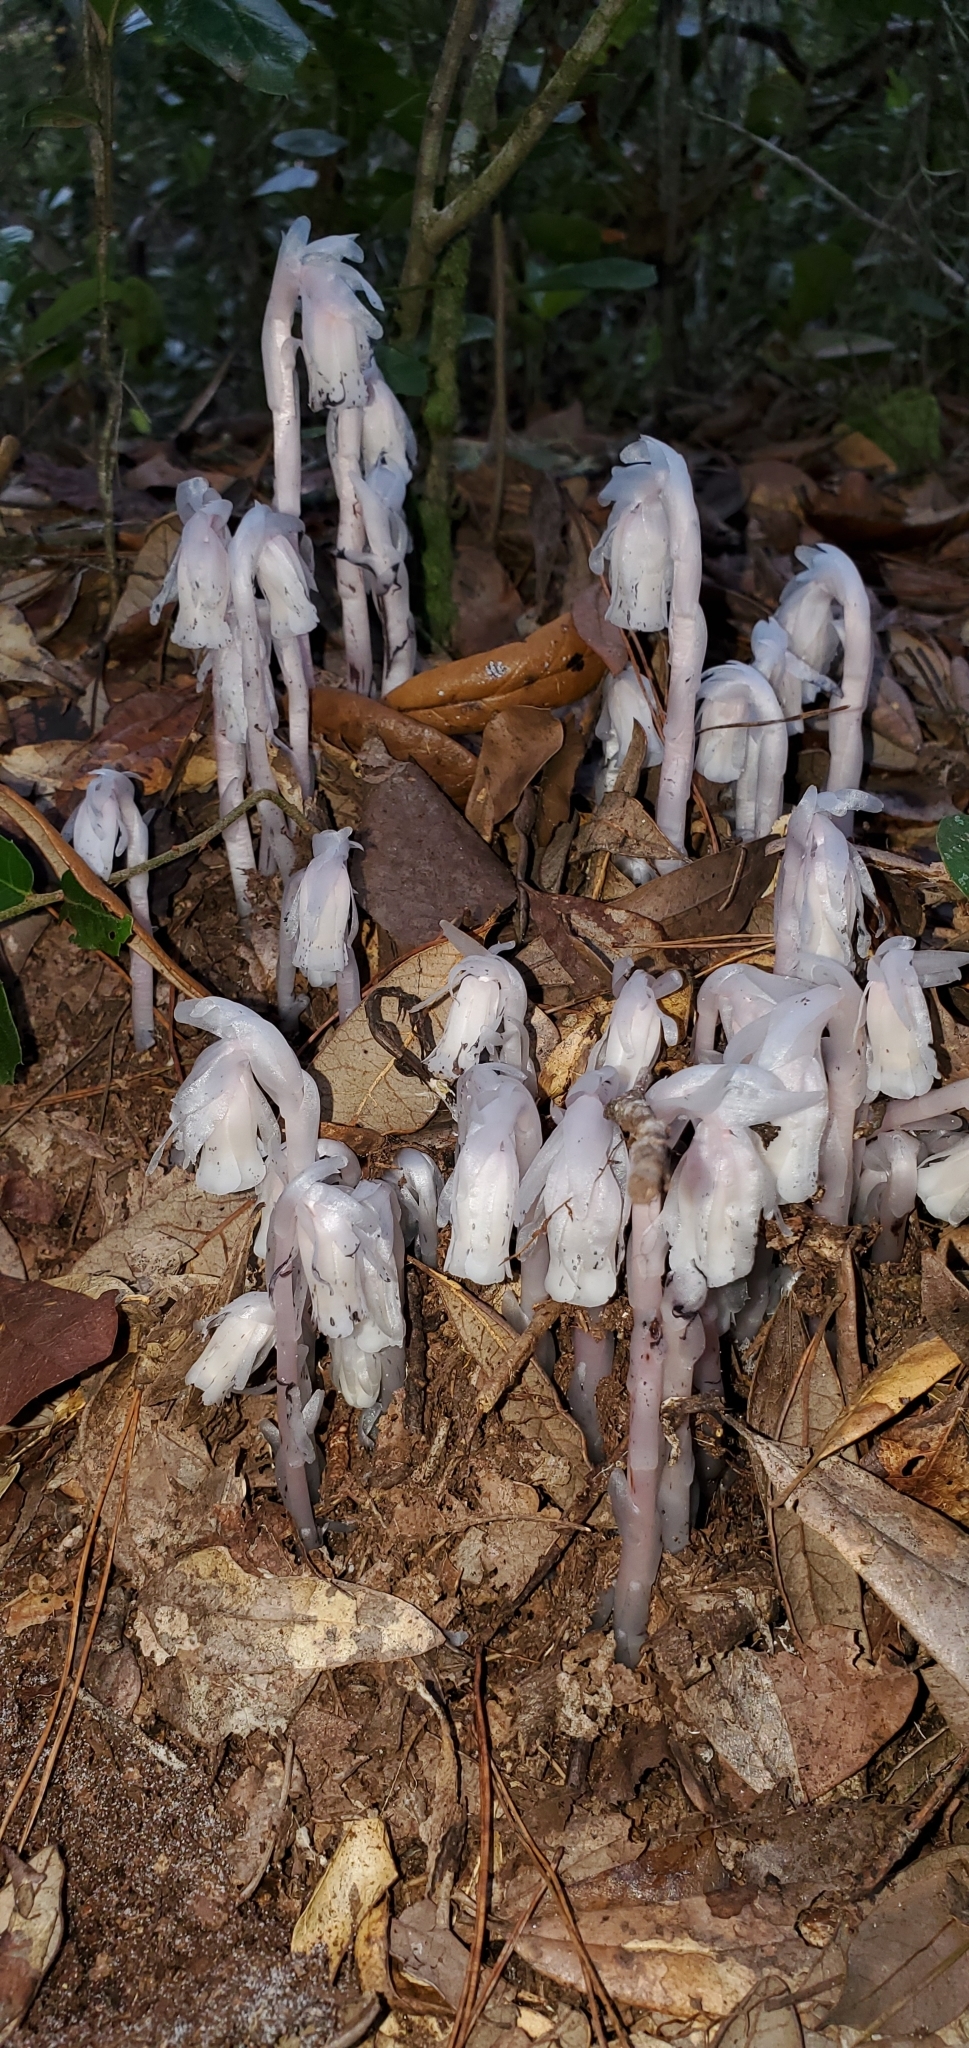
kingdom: Plantae
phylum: Tracheophyta
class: Magnoliopsida
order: Ericales
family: Ericaceae
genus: Monotropa
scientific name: Monotropa uniflora
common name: Convulsion root
